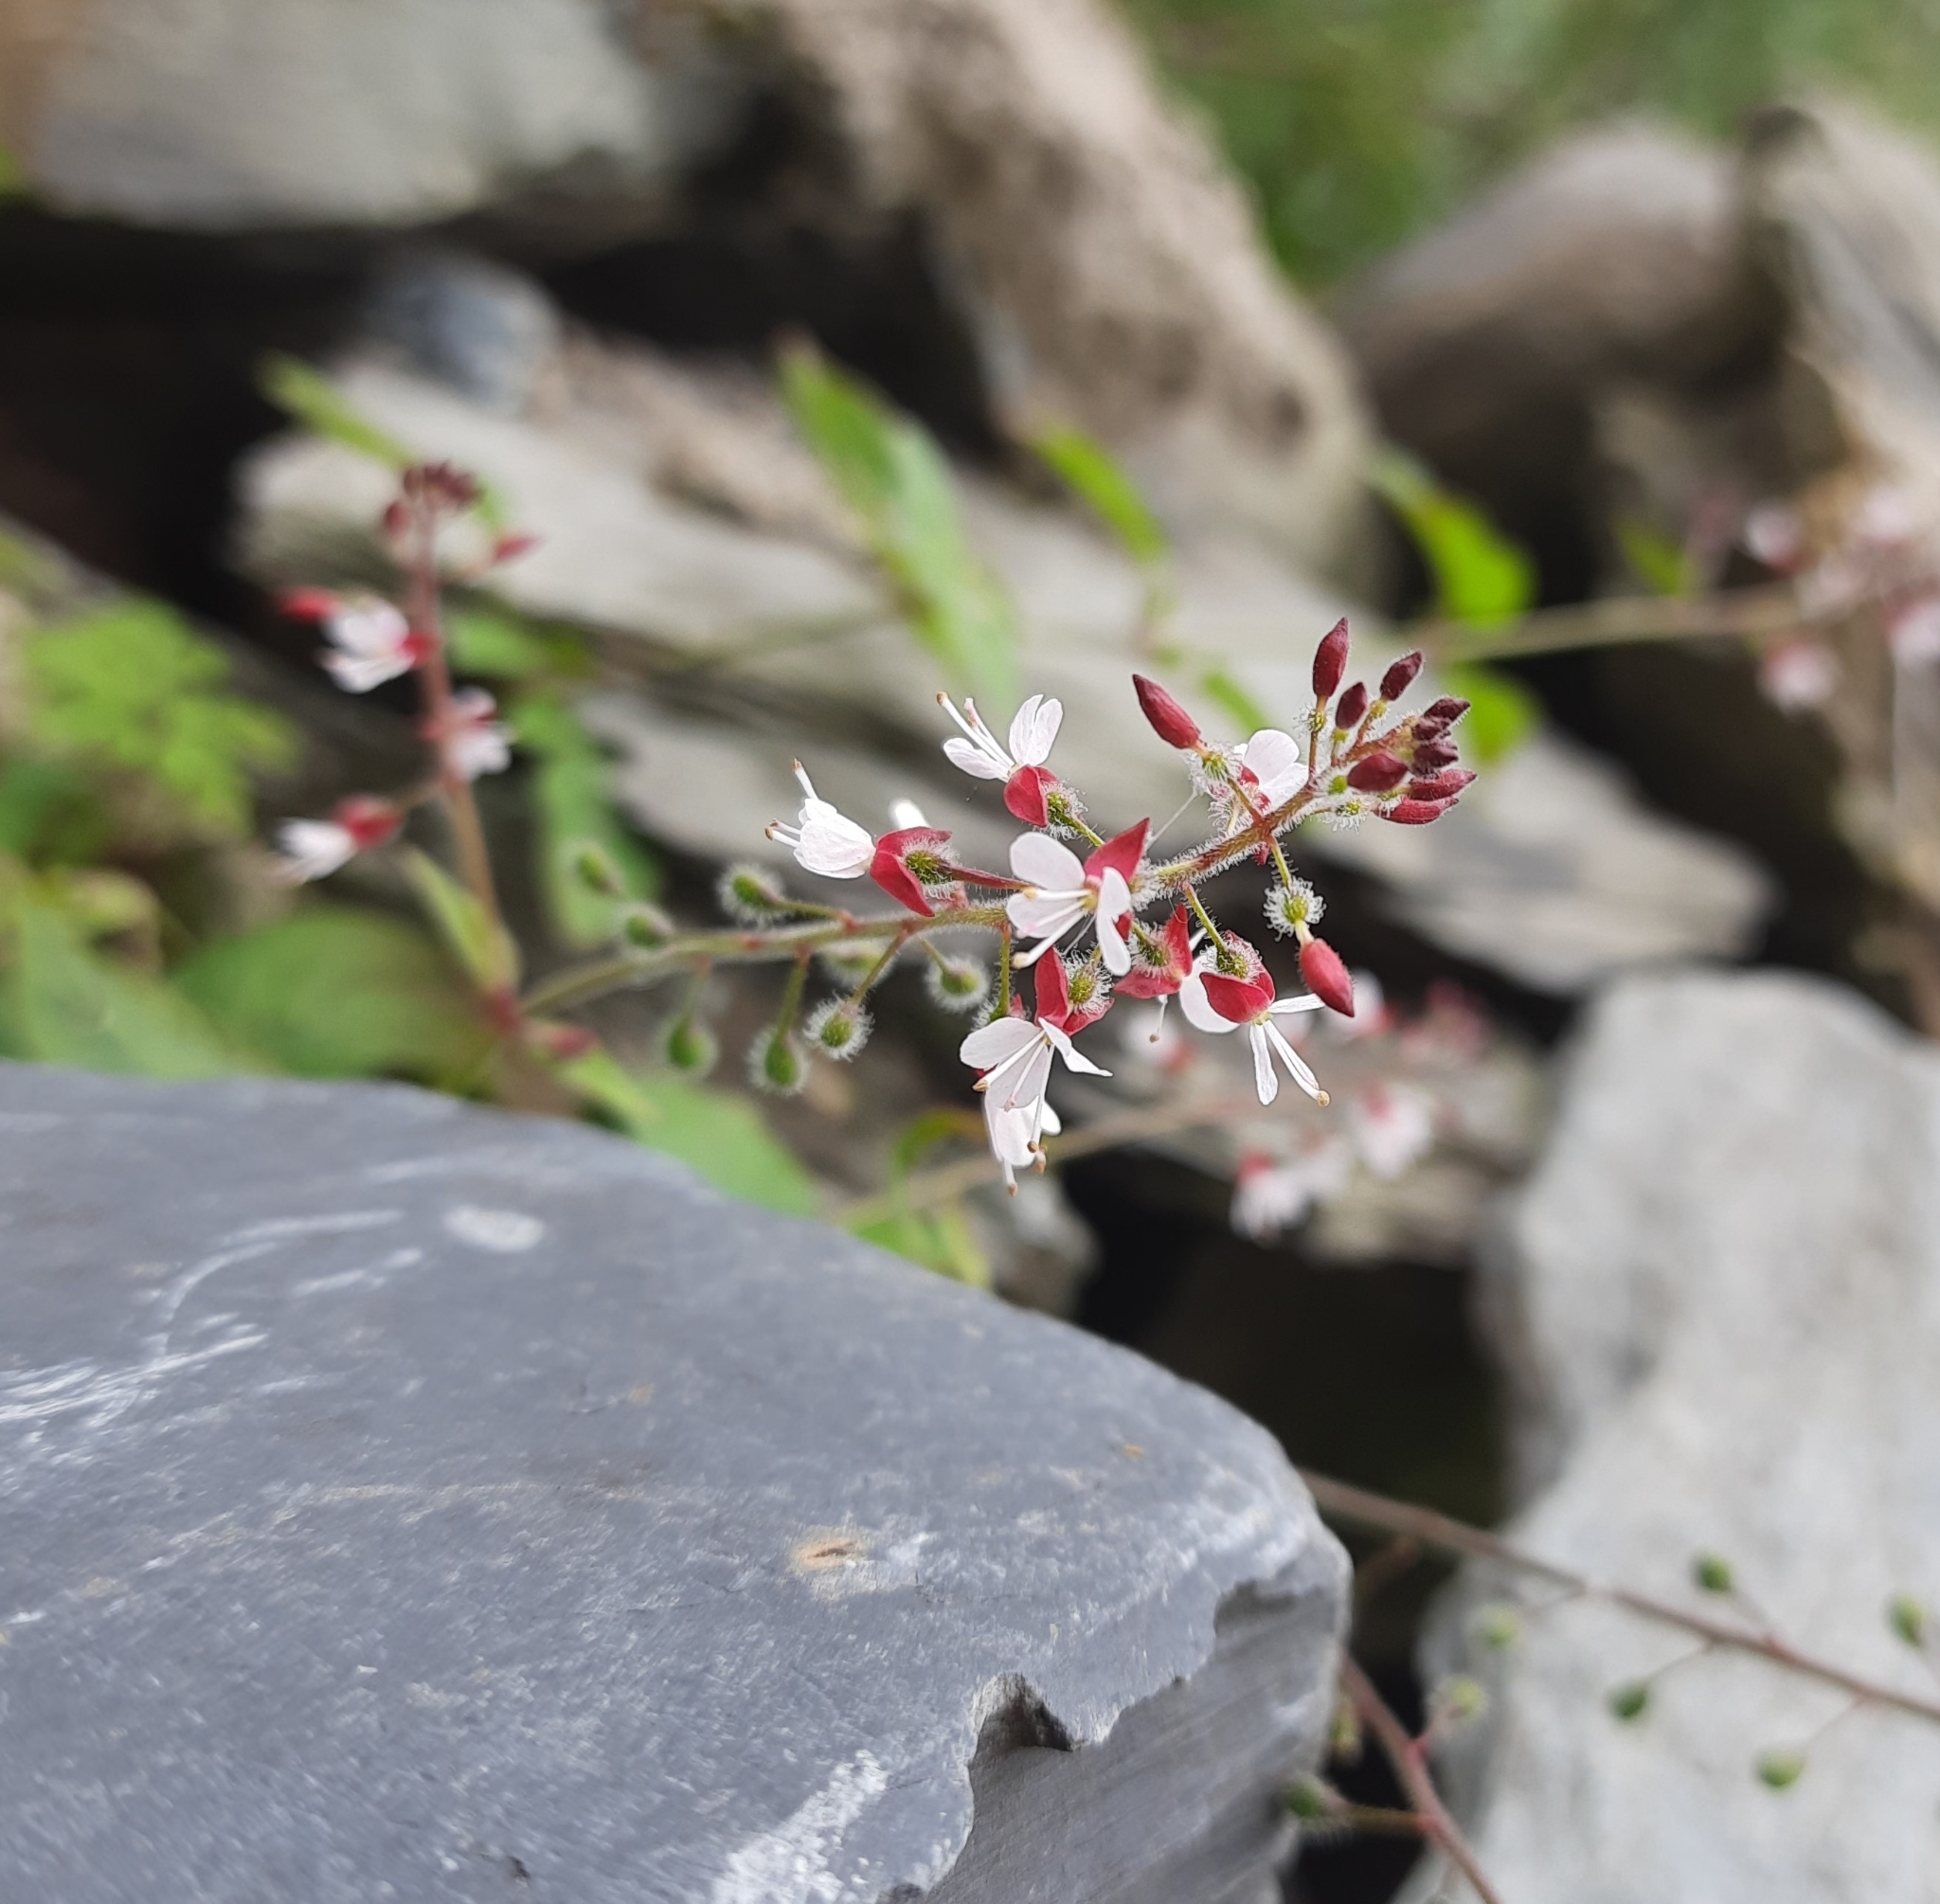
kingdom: Plantae
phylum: Tracheophyta
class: Magnoliopsida
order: Myrtales
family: Onagraceae
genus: Circaea
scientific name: Circaea lutetiana
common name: Enchanter's-nightshade
